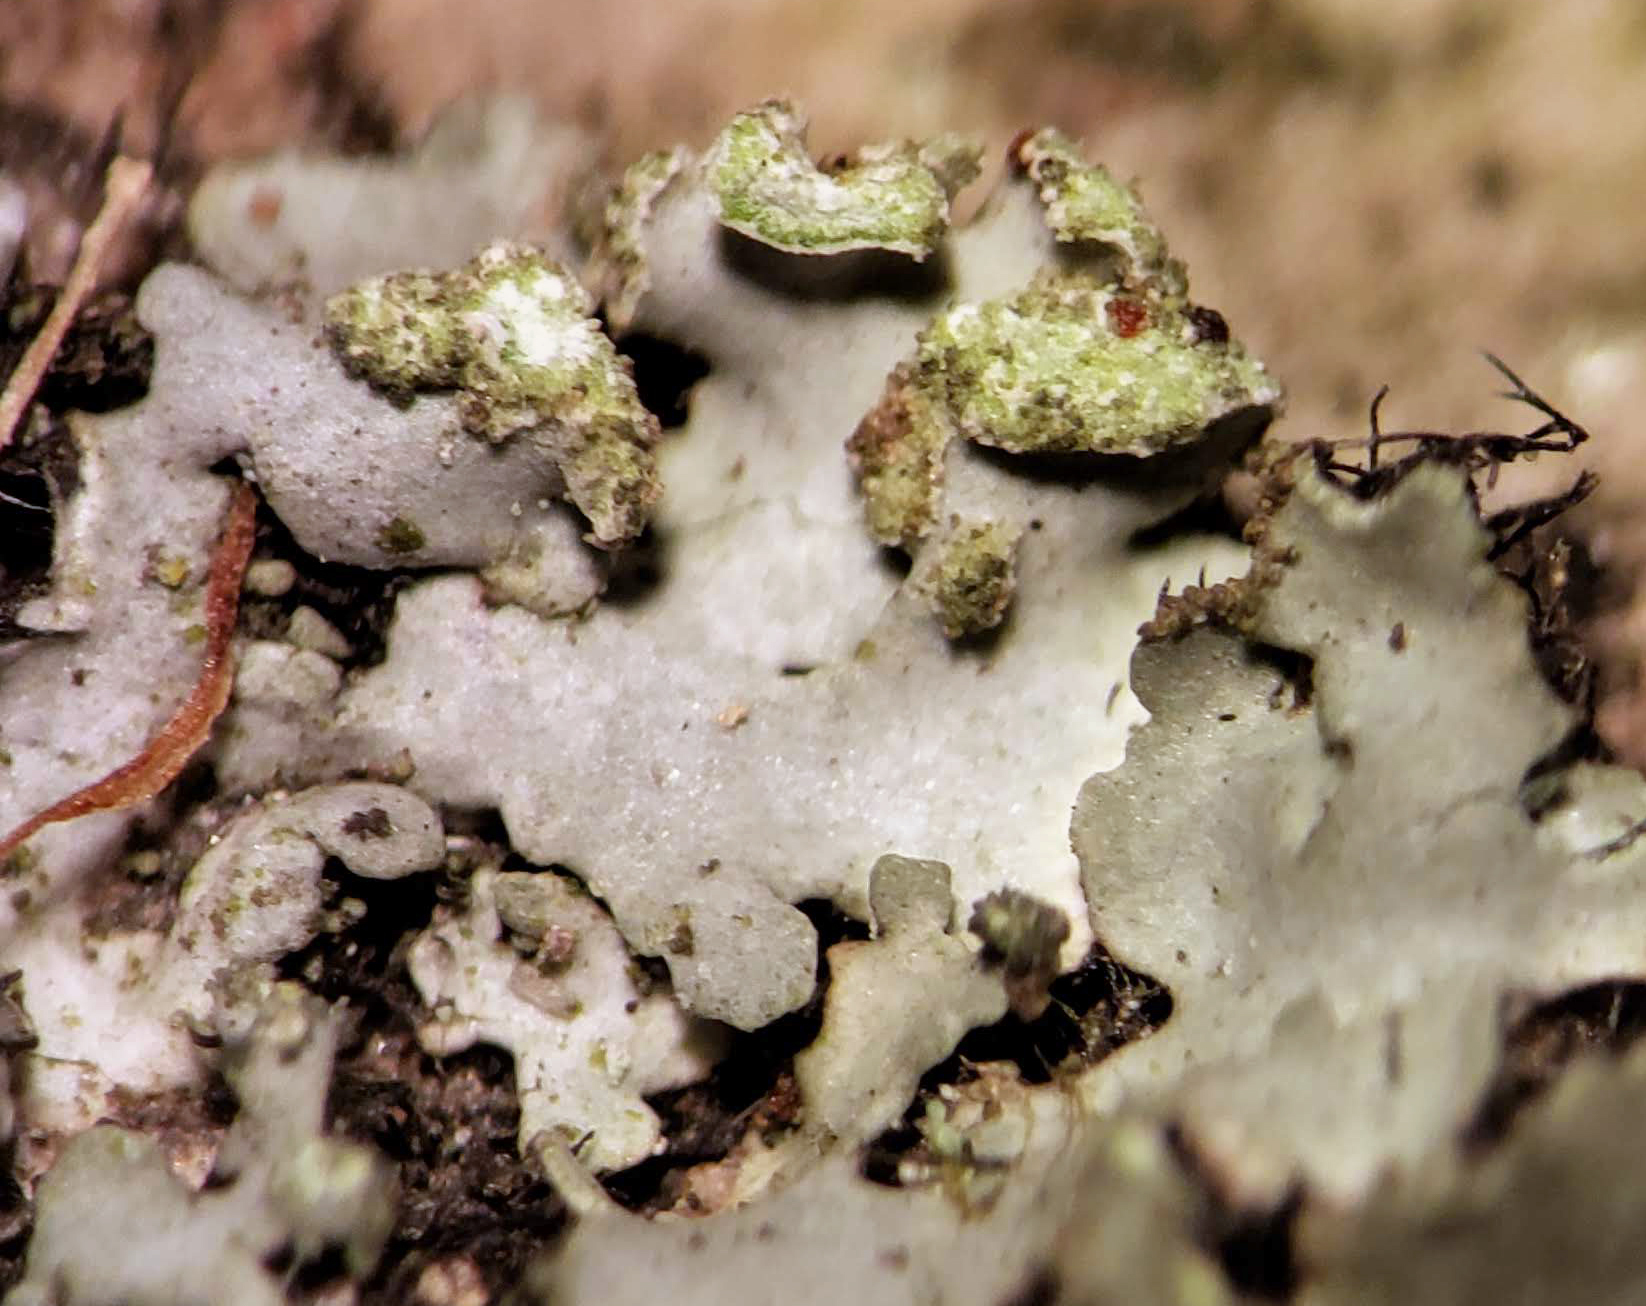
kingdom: Fungi
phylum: Ascomycota
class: Lecanoromycetes
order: Caliciales
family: Physciaceae
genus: Phaeophyscia
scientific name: Phaeophyscia pusilloides
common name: Pom-pom shadow lichen
